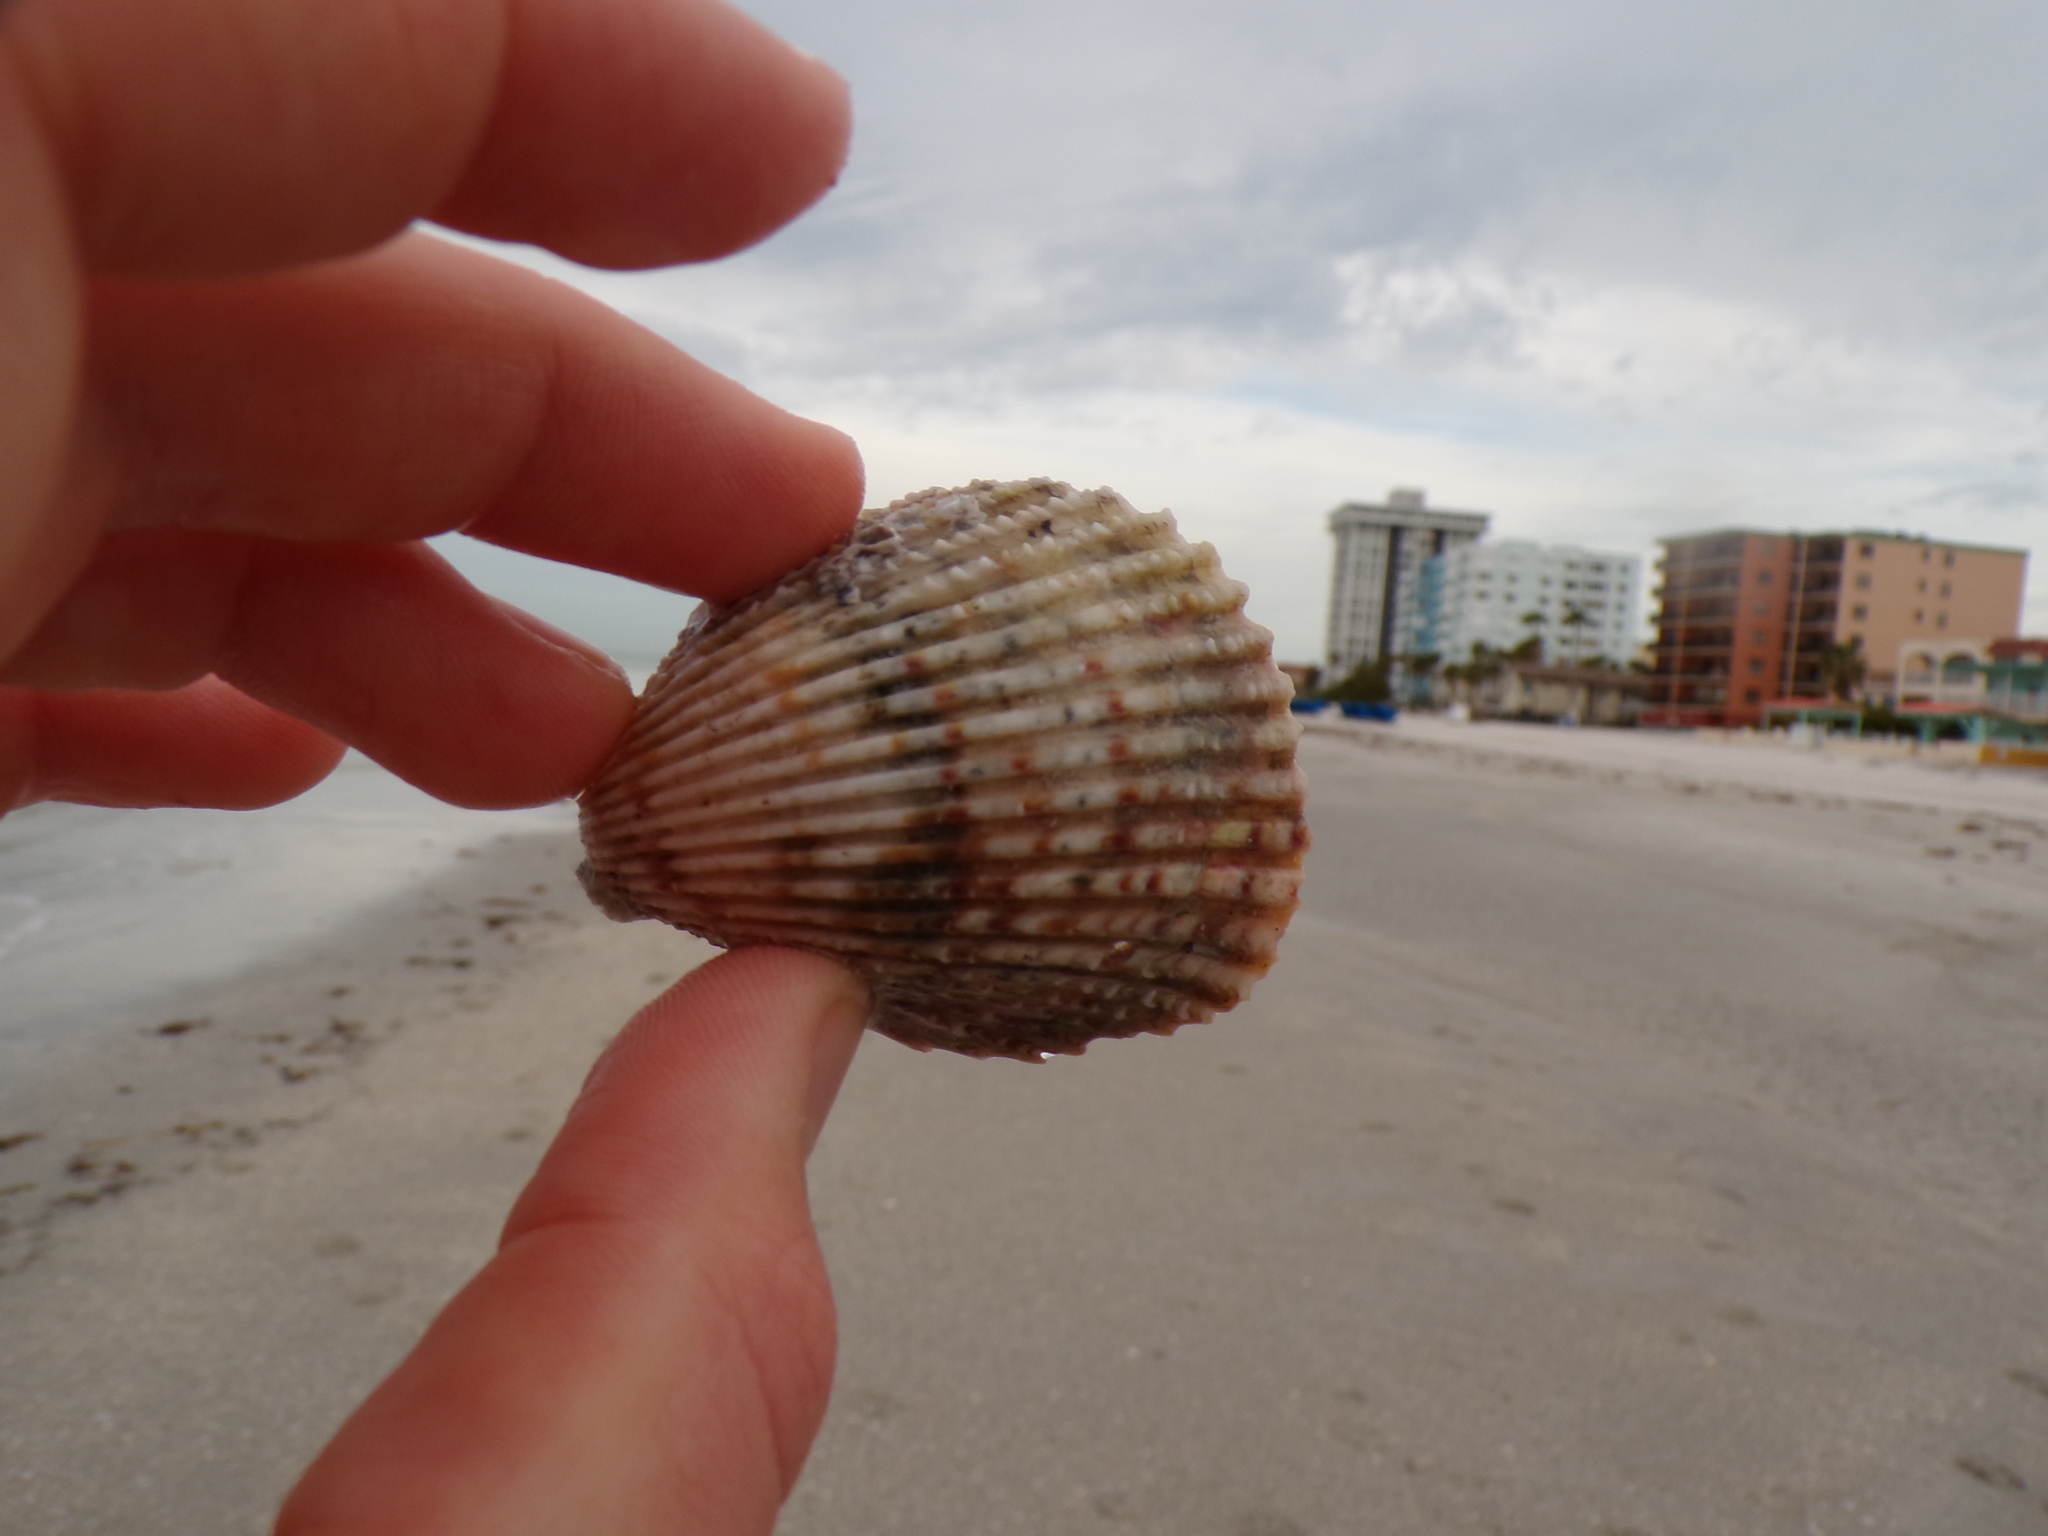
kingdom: Animalia
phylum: Mollusca
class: Bivalvia
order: Cardiida
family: Cardiidae
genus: Trachycardium
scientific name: Trachycardium egmontianum
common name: Florida pricklycockle
